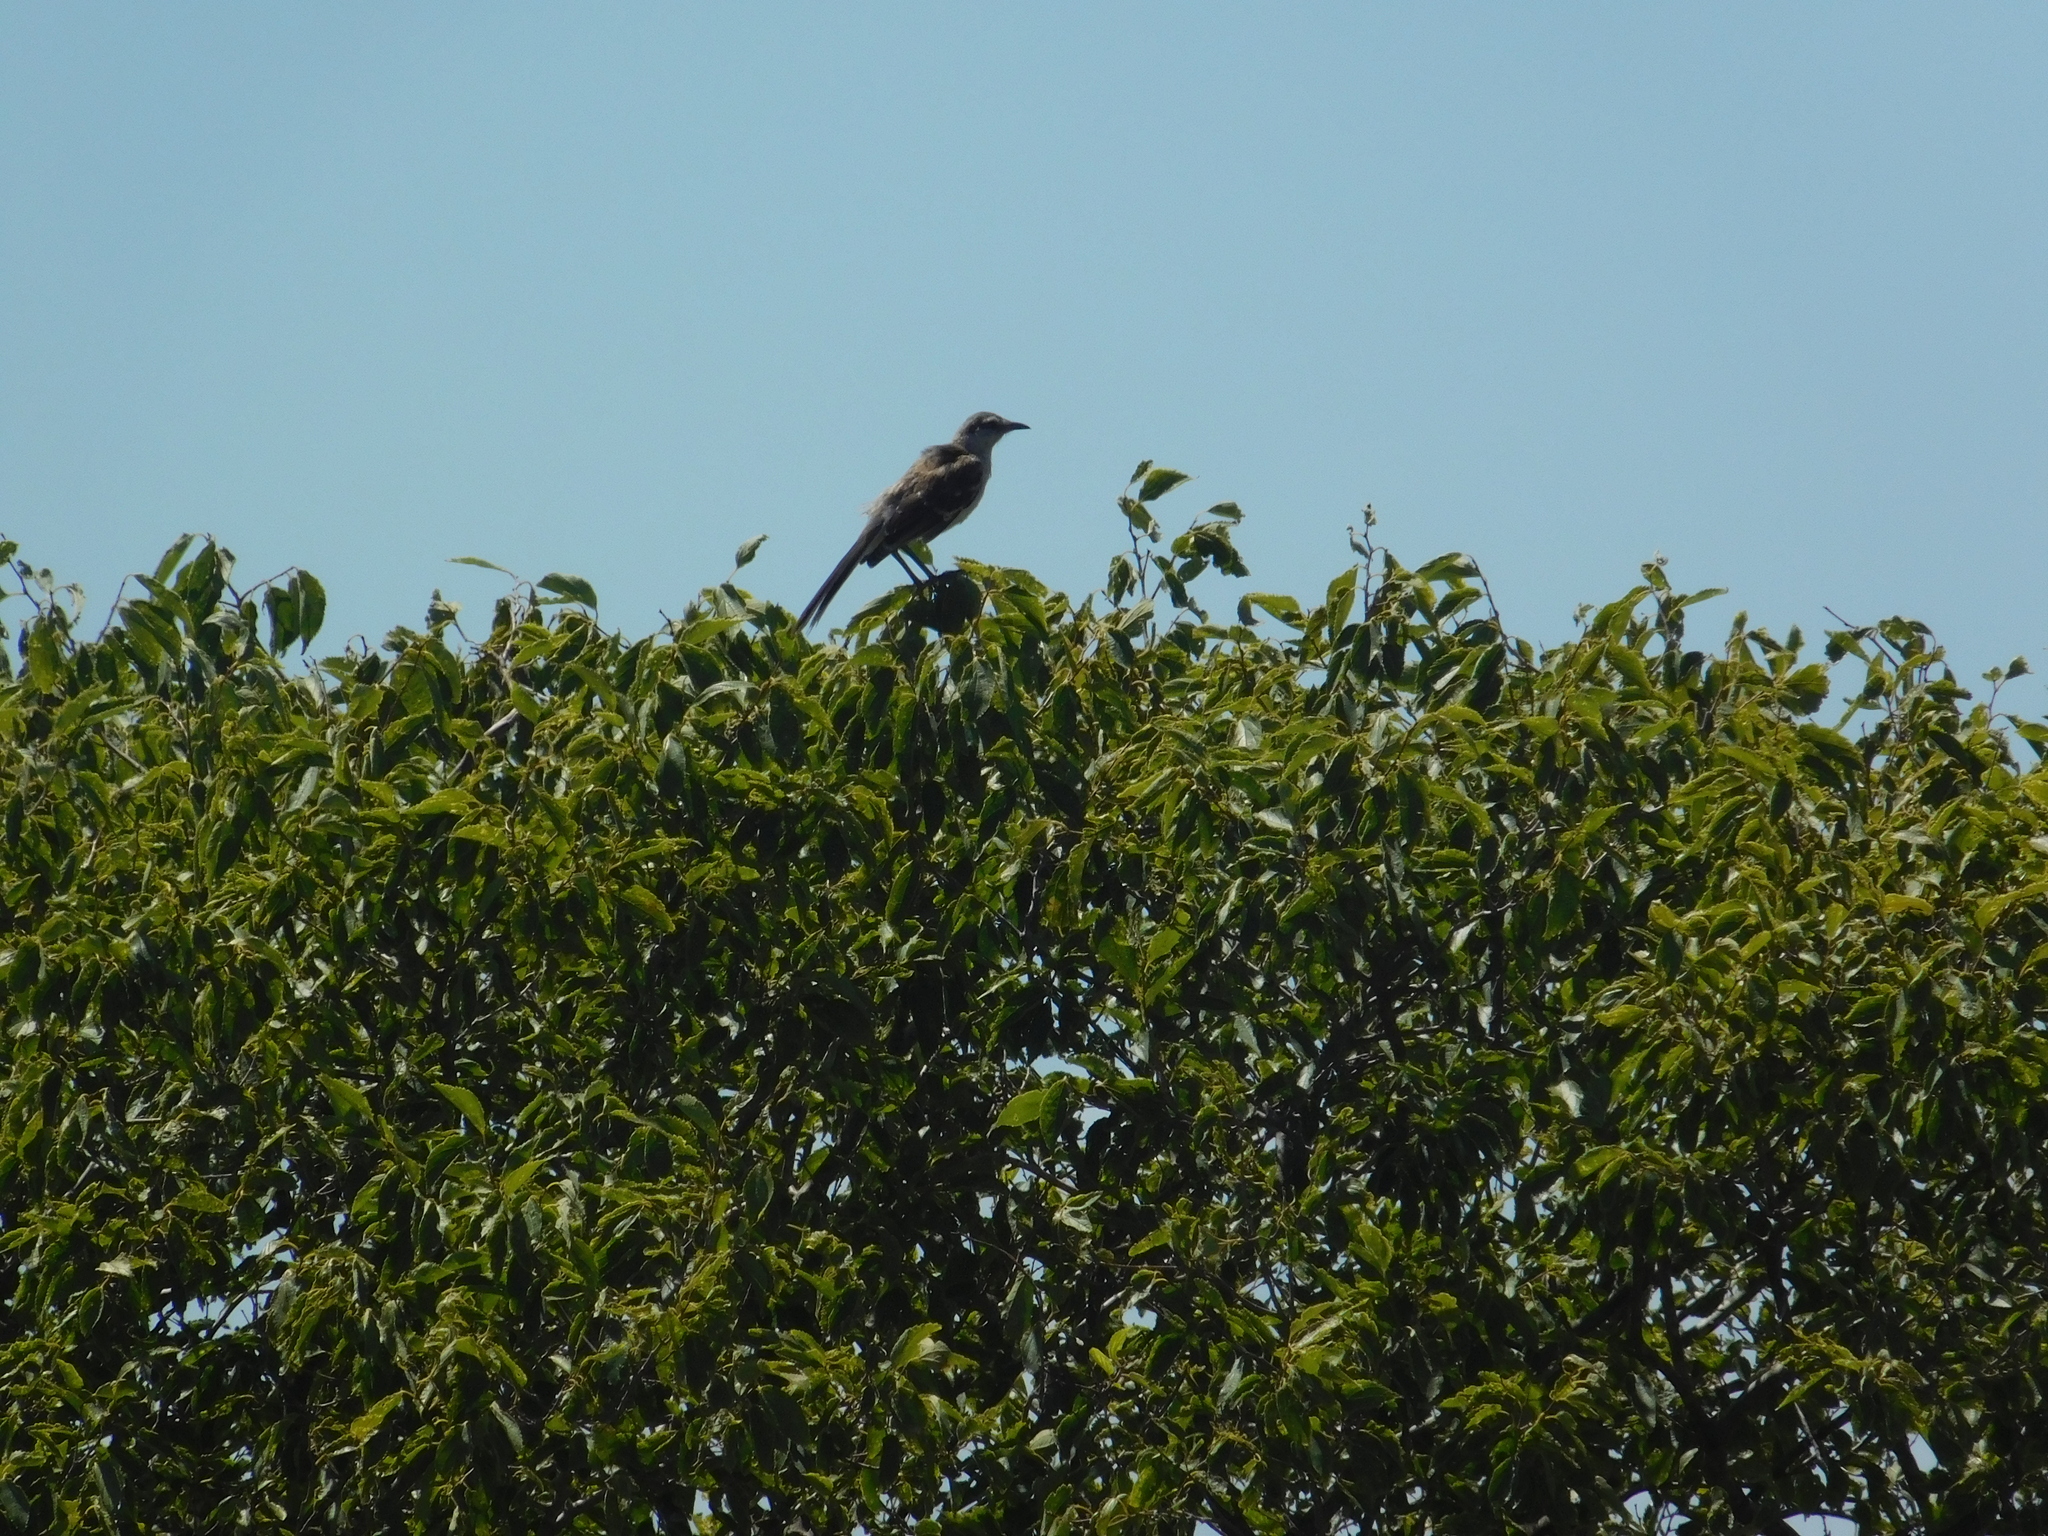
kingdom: Animalia
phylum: Chordata
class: Aves
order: Passeriformes
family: Mimidae
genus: Mimus
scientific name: Mimus saturninus
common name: Chalk-browed mockingbird
